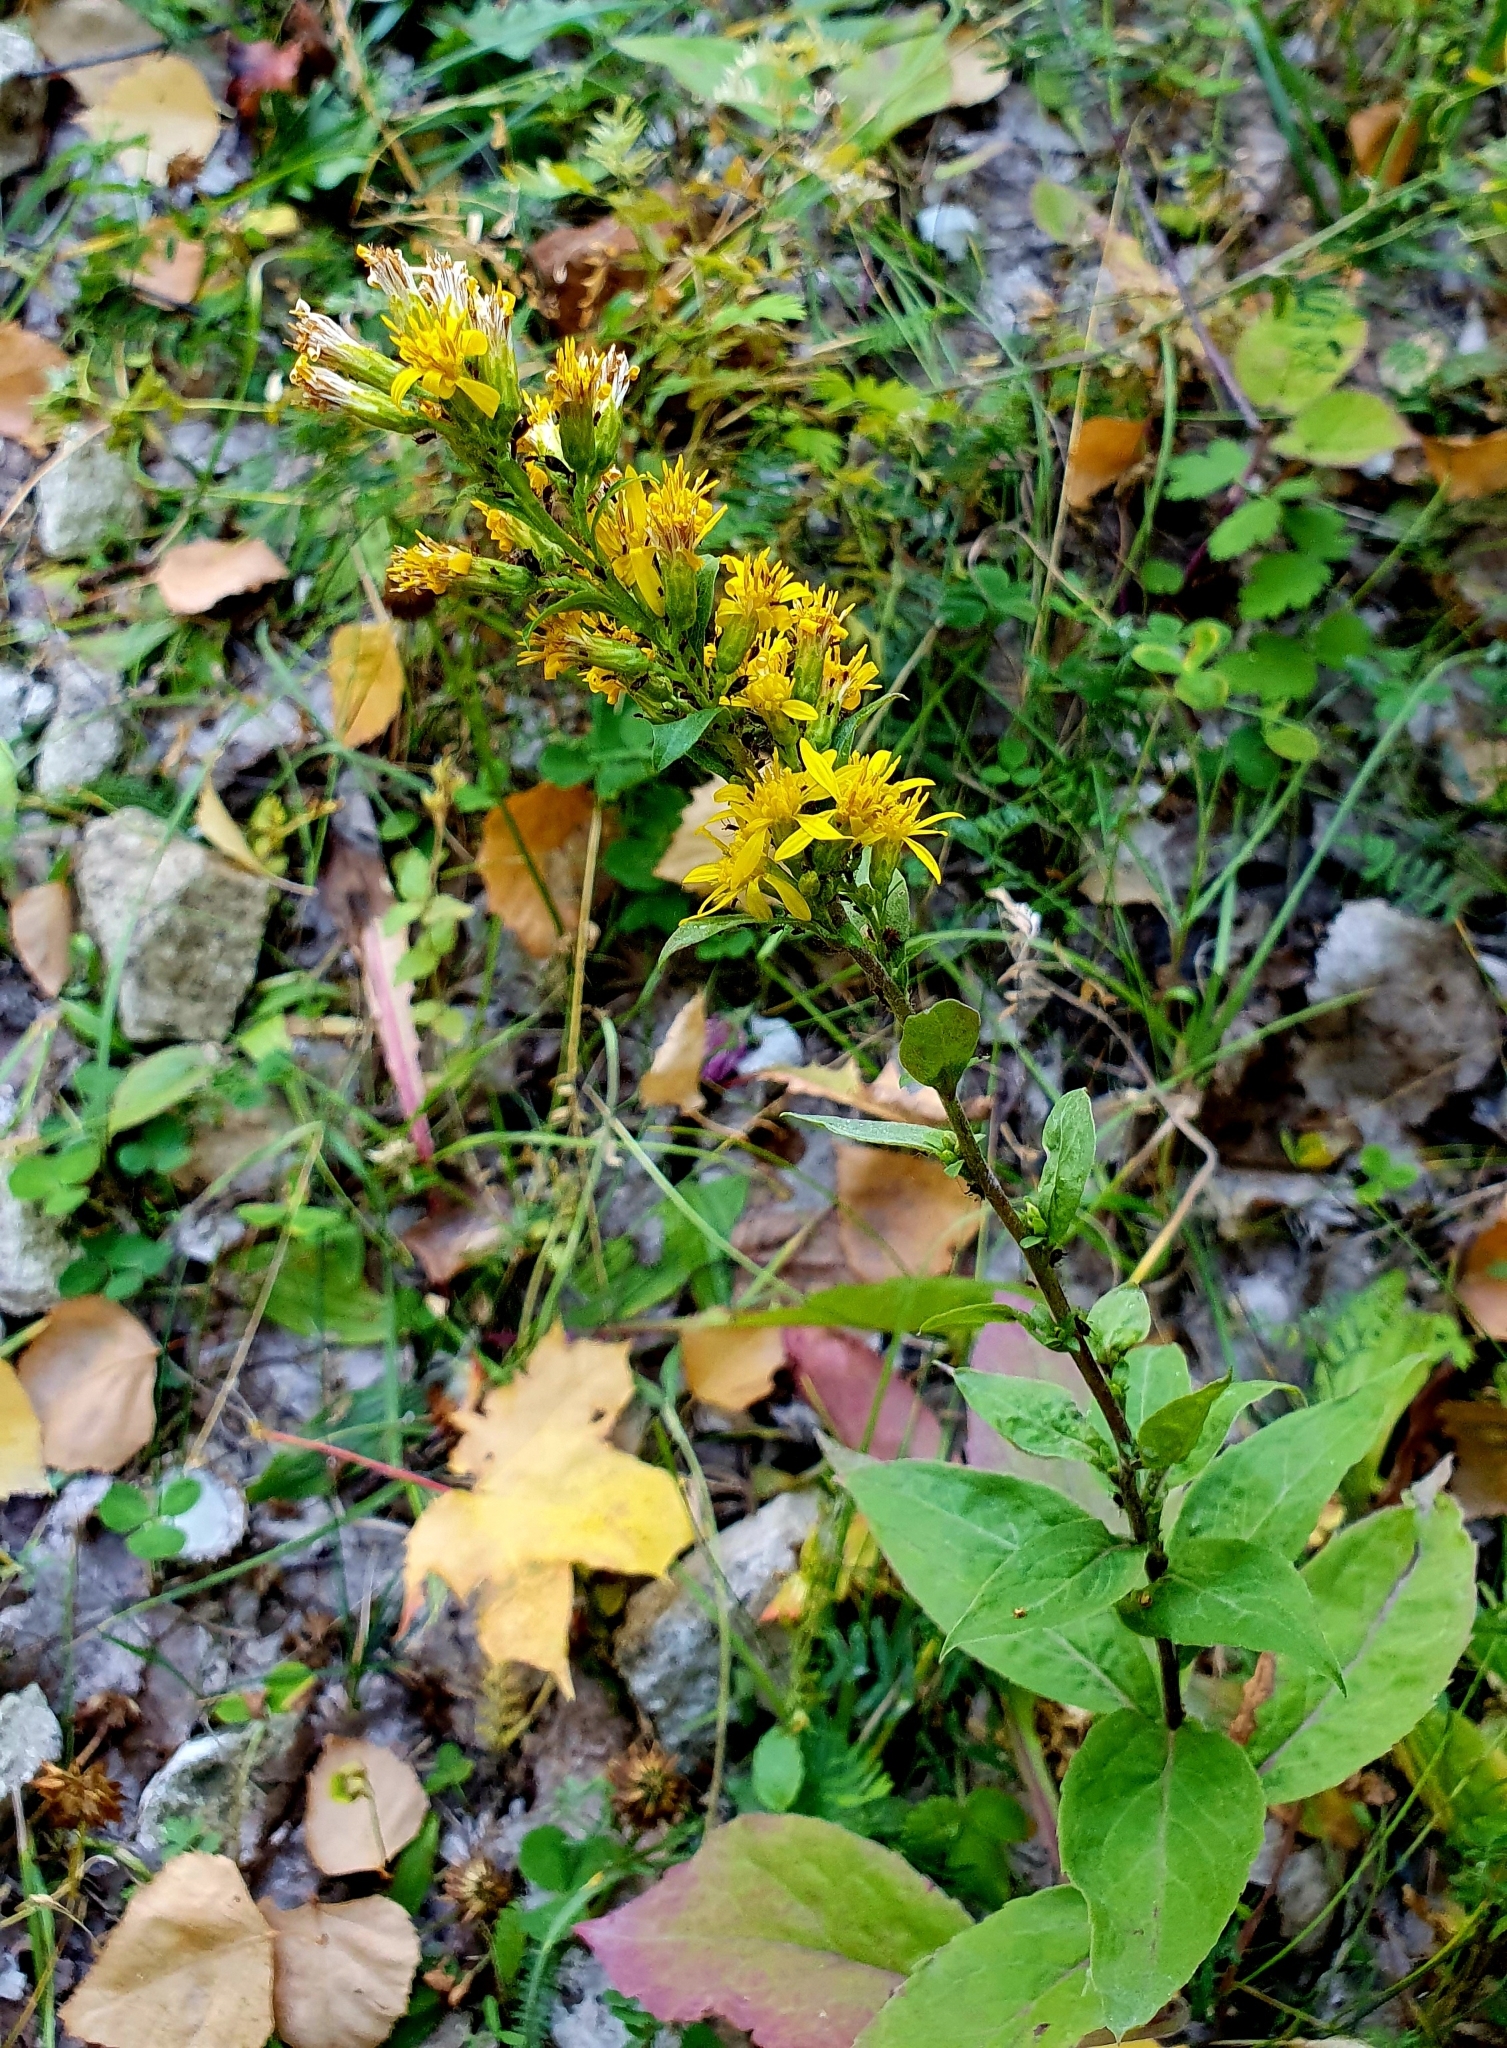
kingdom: Plantae
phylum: Tracheophyta
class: Magnoliopsida
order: Asterales
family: Asteraceae
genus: Solidago
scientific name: Solidago virgaurea
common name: Goldenrod
